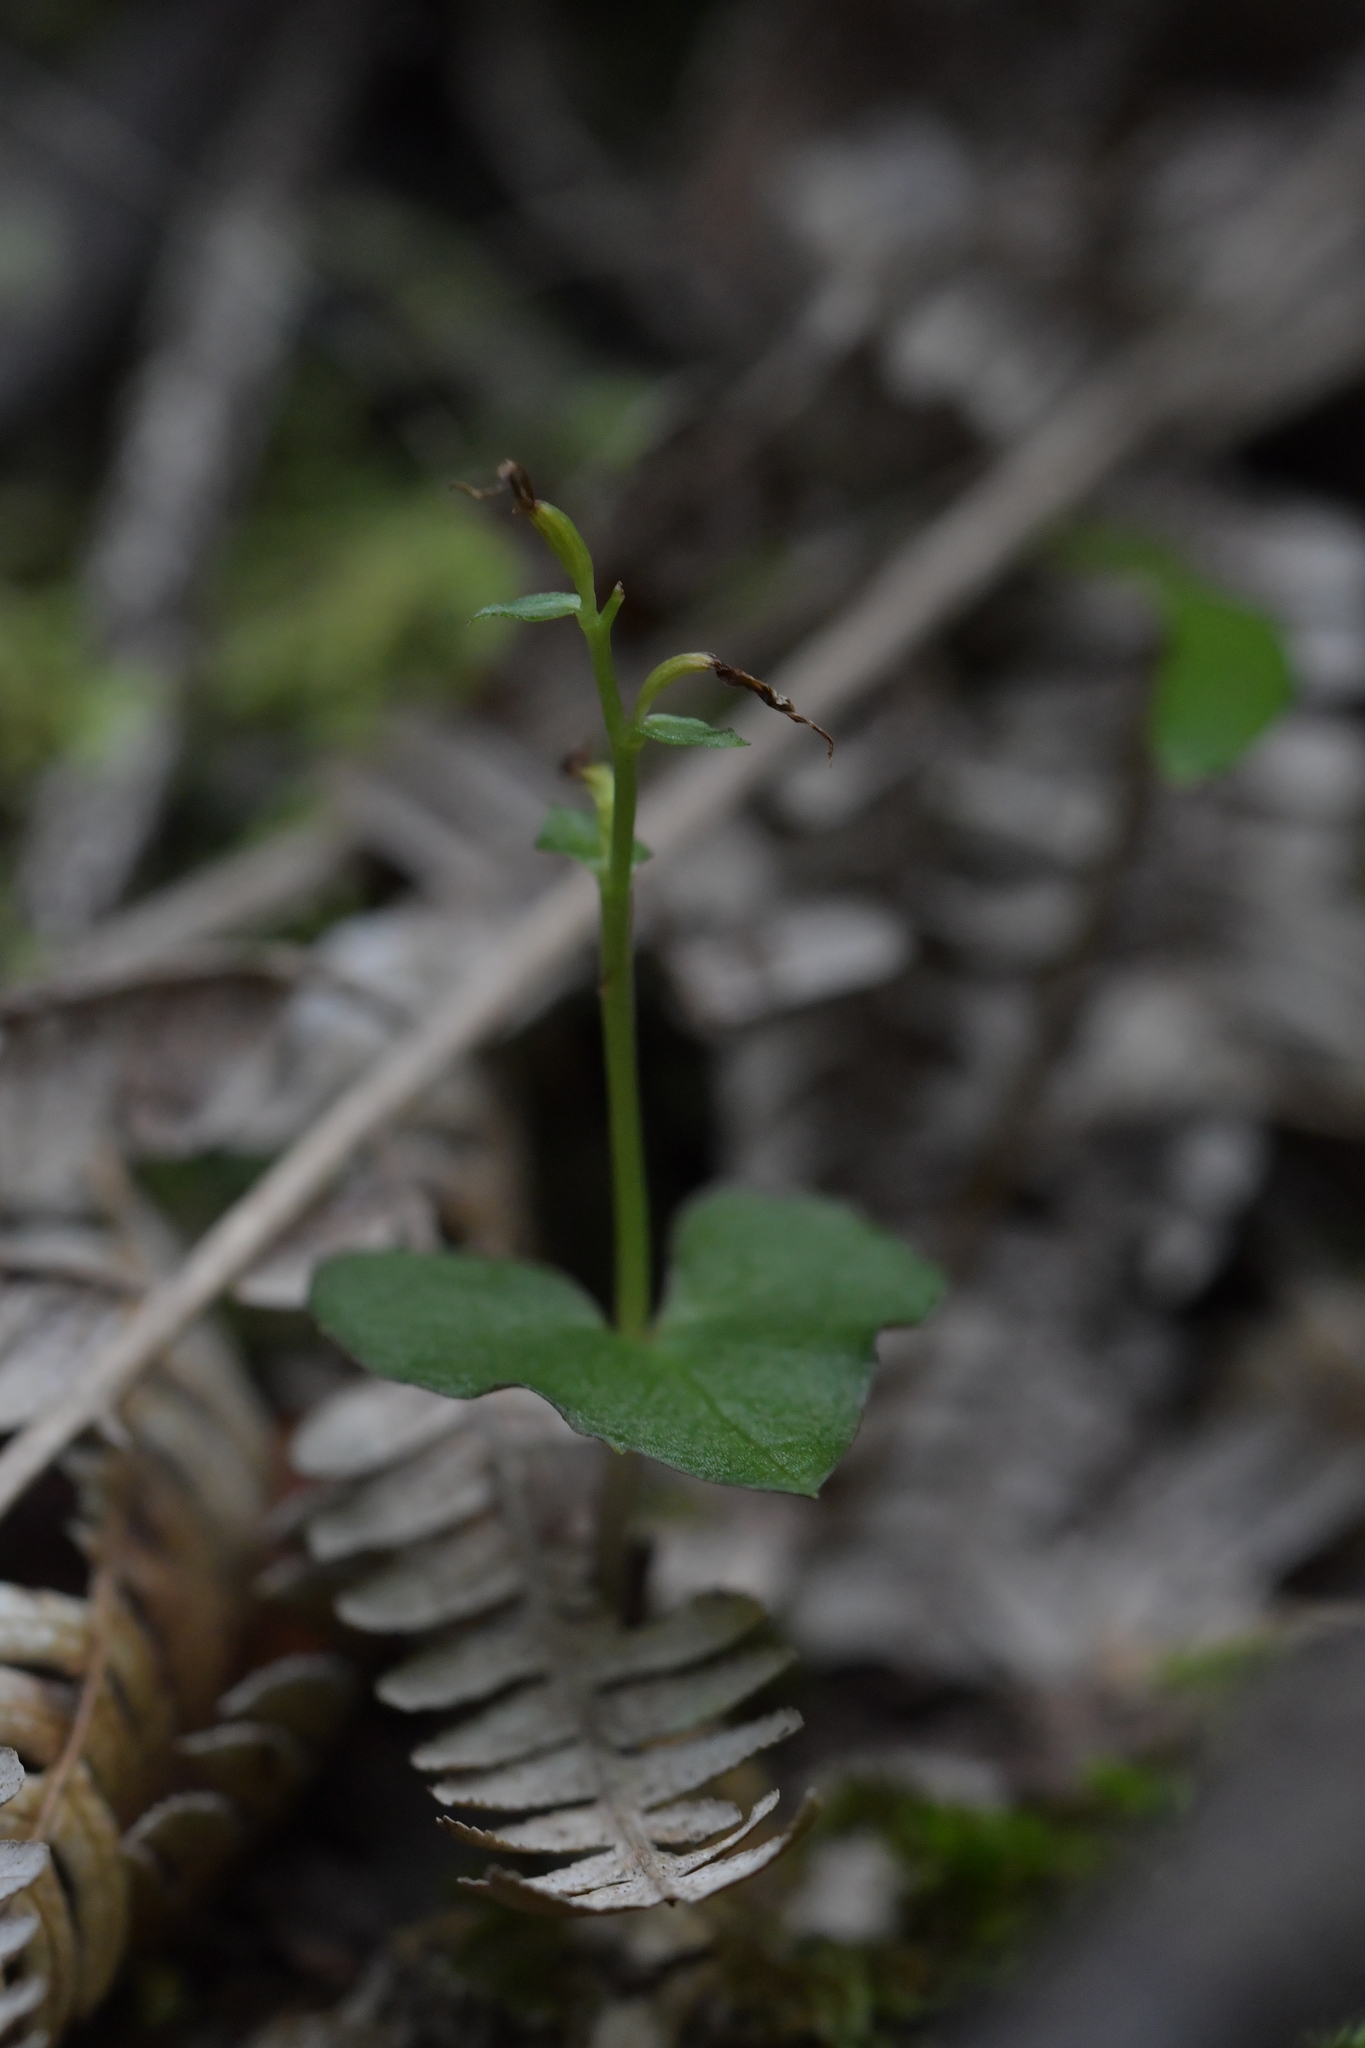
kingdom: Plantae
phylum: Tracheophyta
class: Liliopsida
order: Asparagales
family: Orchidaceae
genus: Acianthus
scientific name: Acianthus sinclairii
